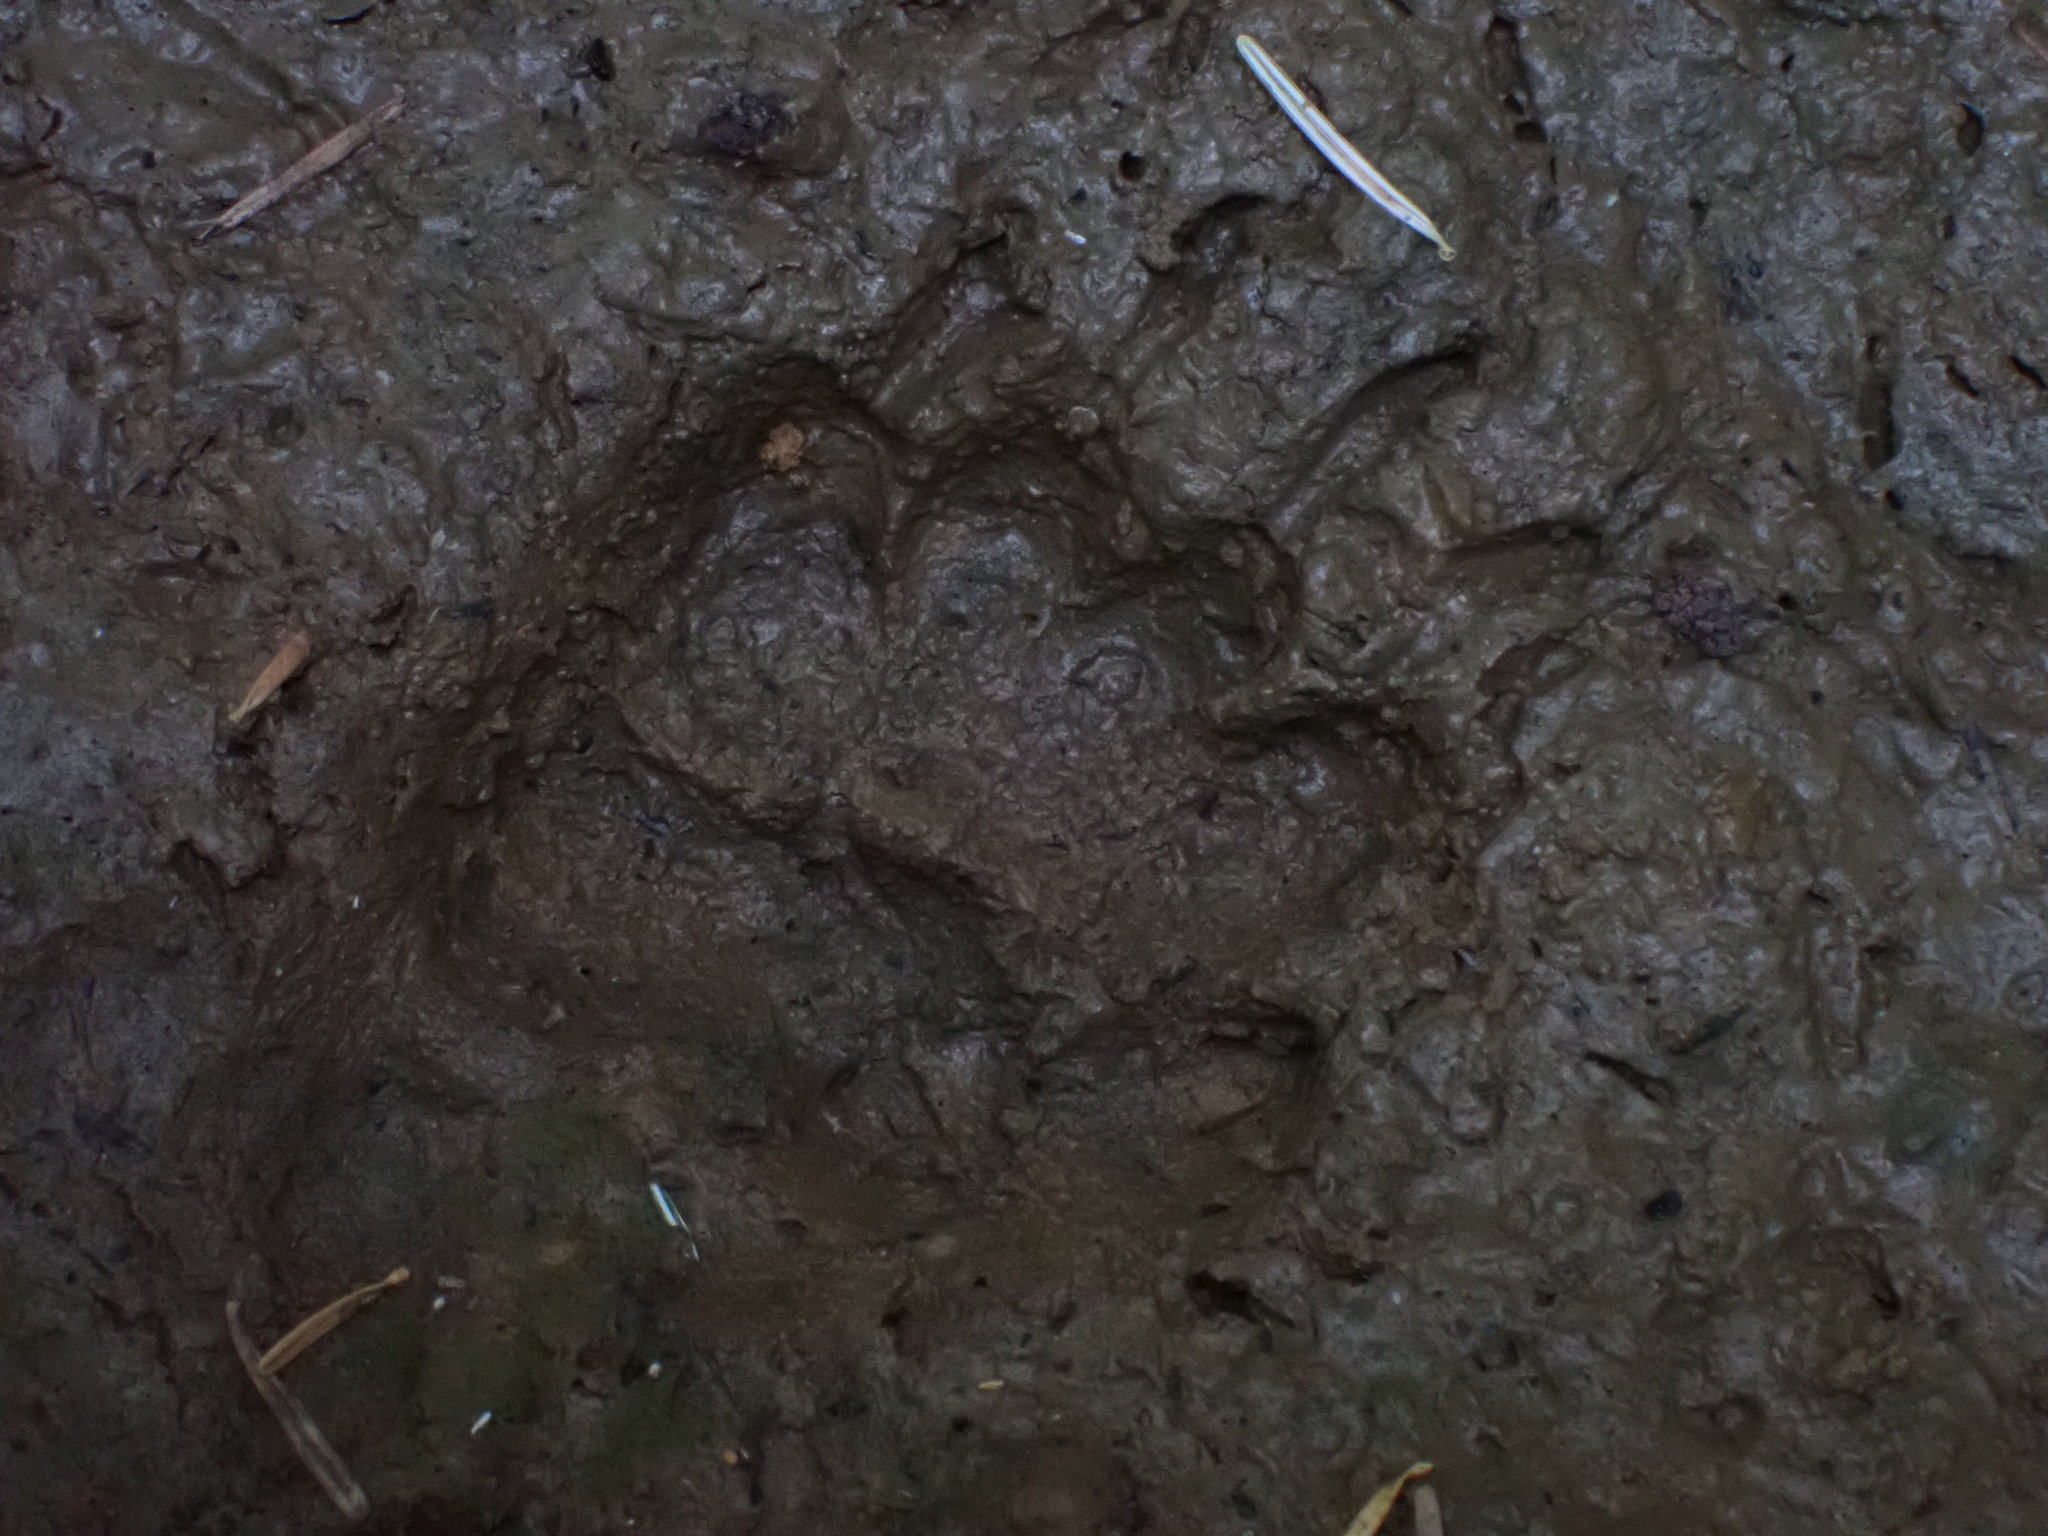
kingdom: Animalia
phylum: Chordata
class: Mammalia
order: Carnivora
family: Mustelidae
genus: Meles
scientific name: Meles meles
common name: Eurasian badger
